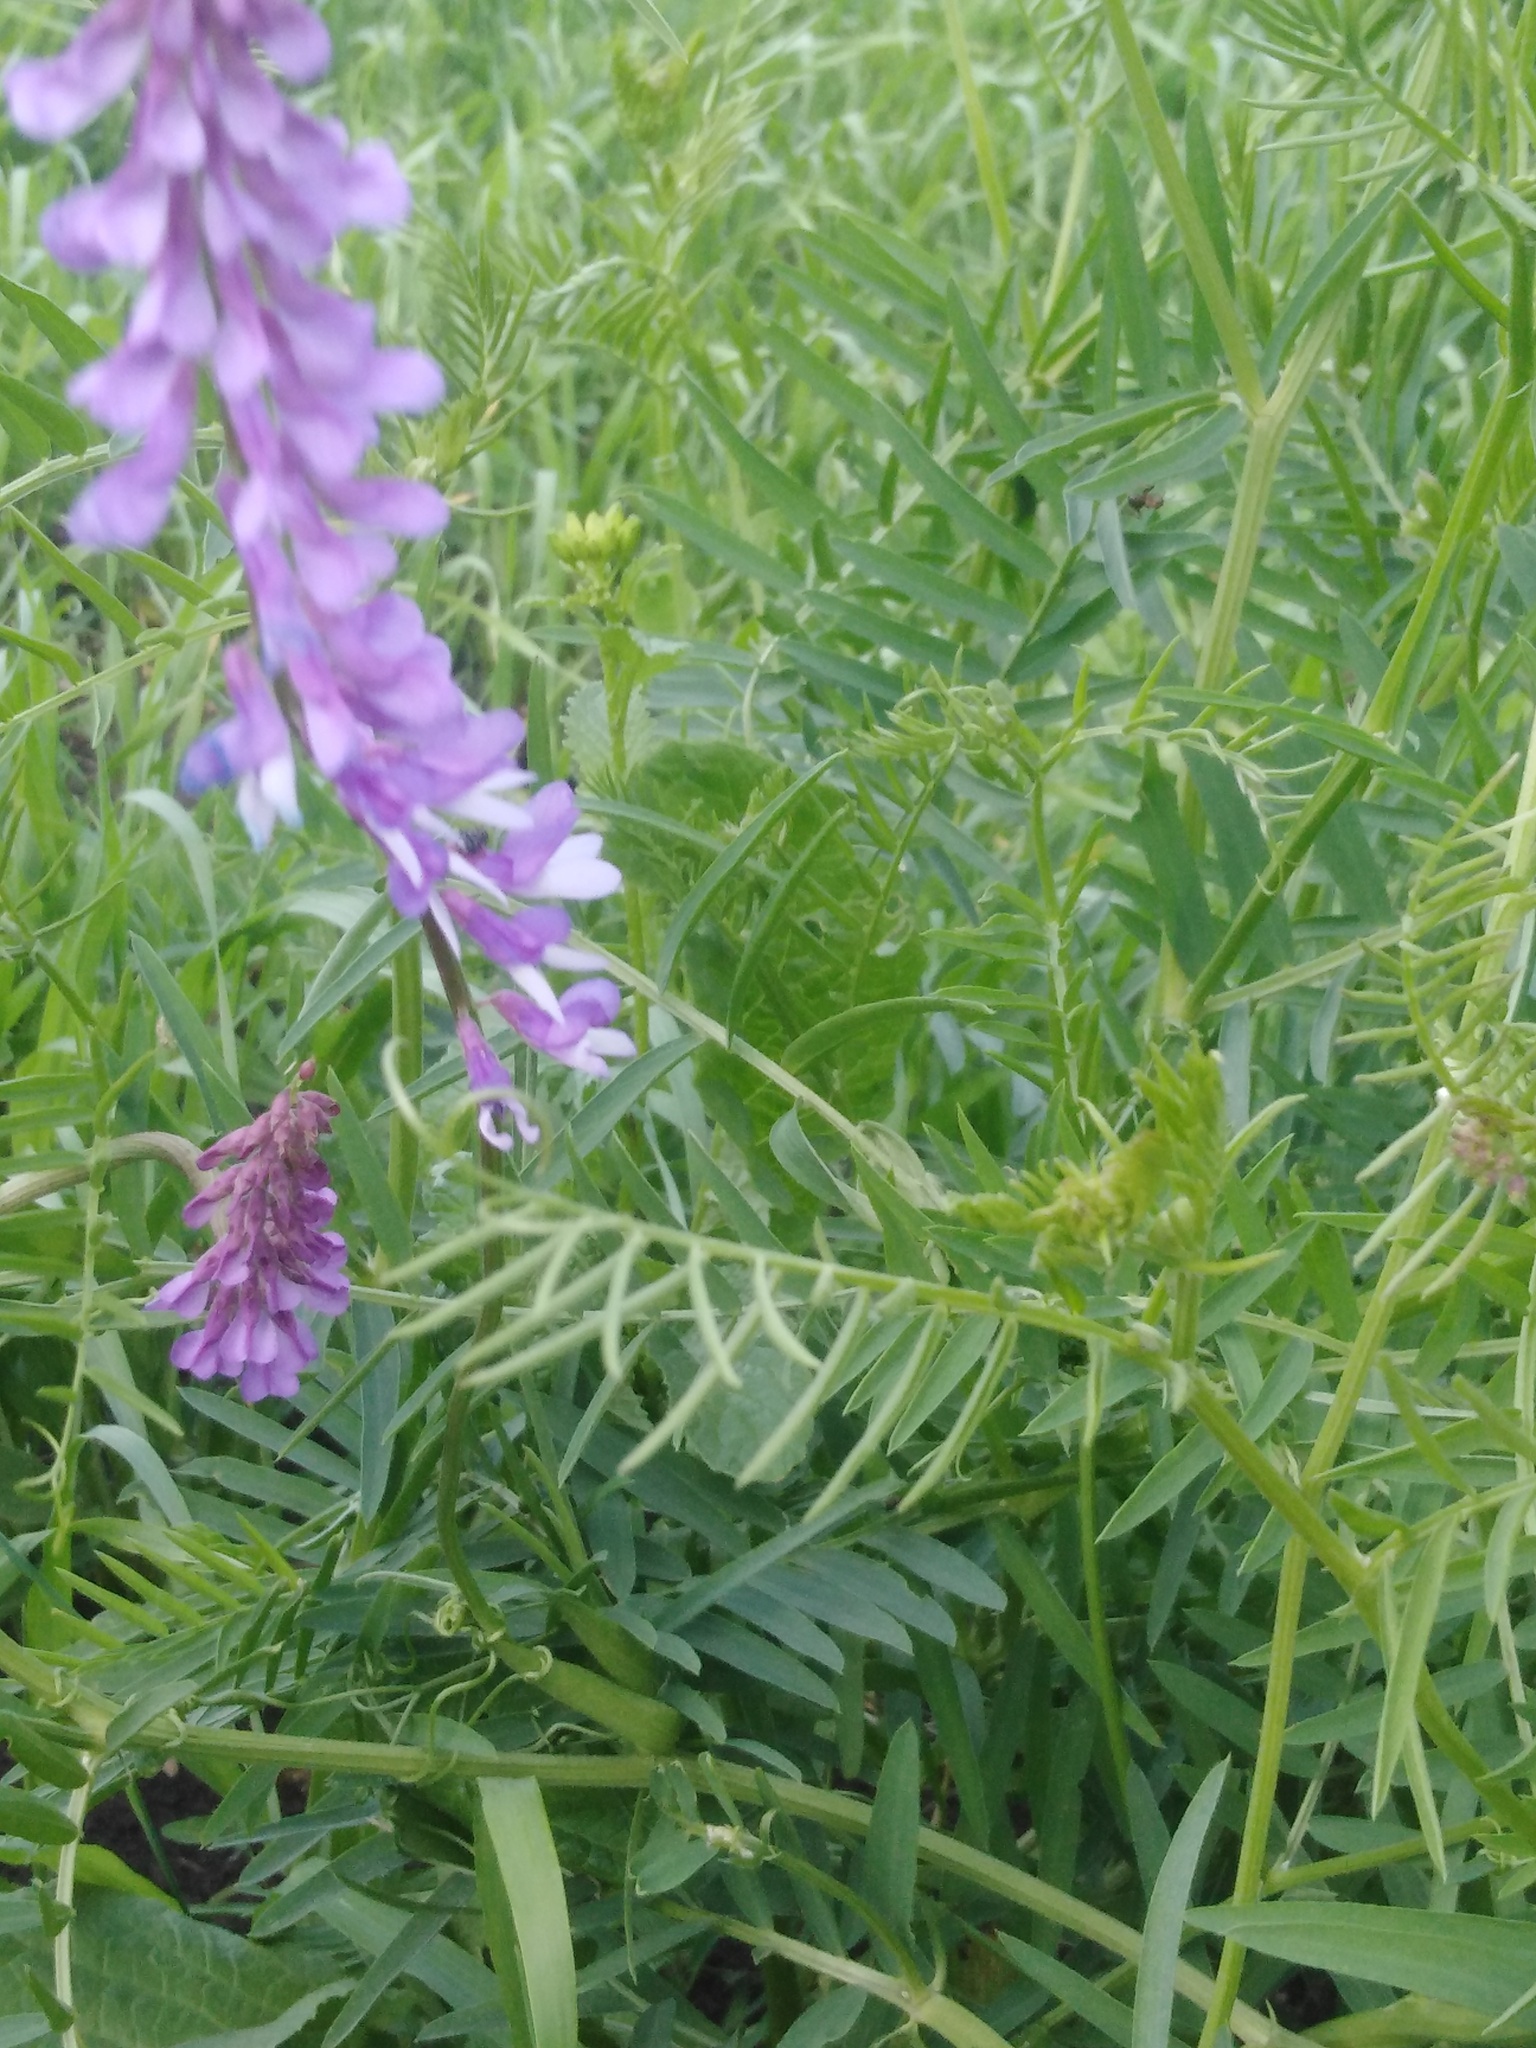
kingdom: Plantae
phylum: Tracheophyta
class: Magnoliopsida
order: Fabales
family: Fabaceae
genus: Vicia
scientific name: Vicia tenuifolia
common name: Fine-leaved vetch
